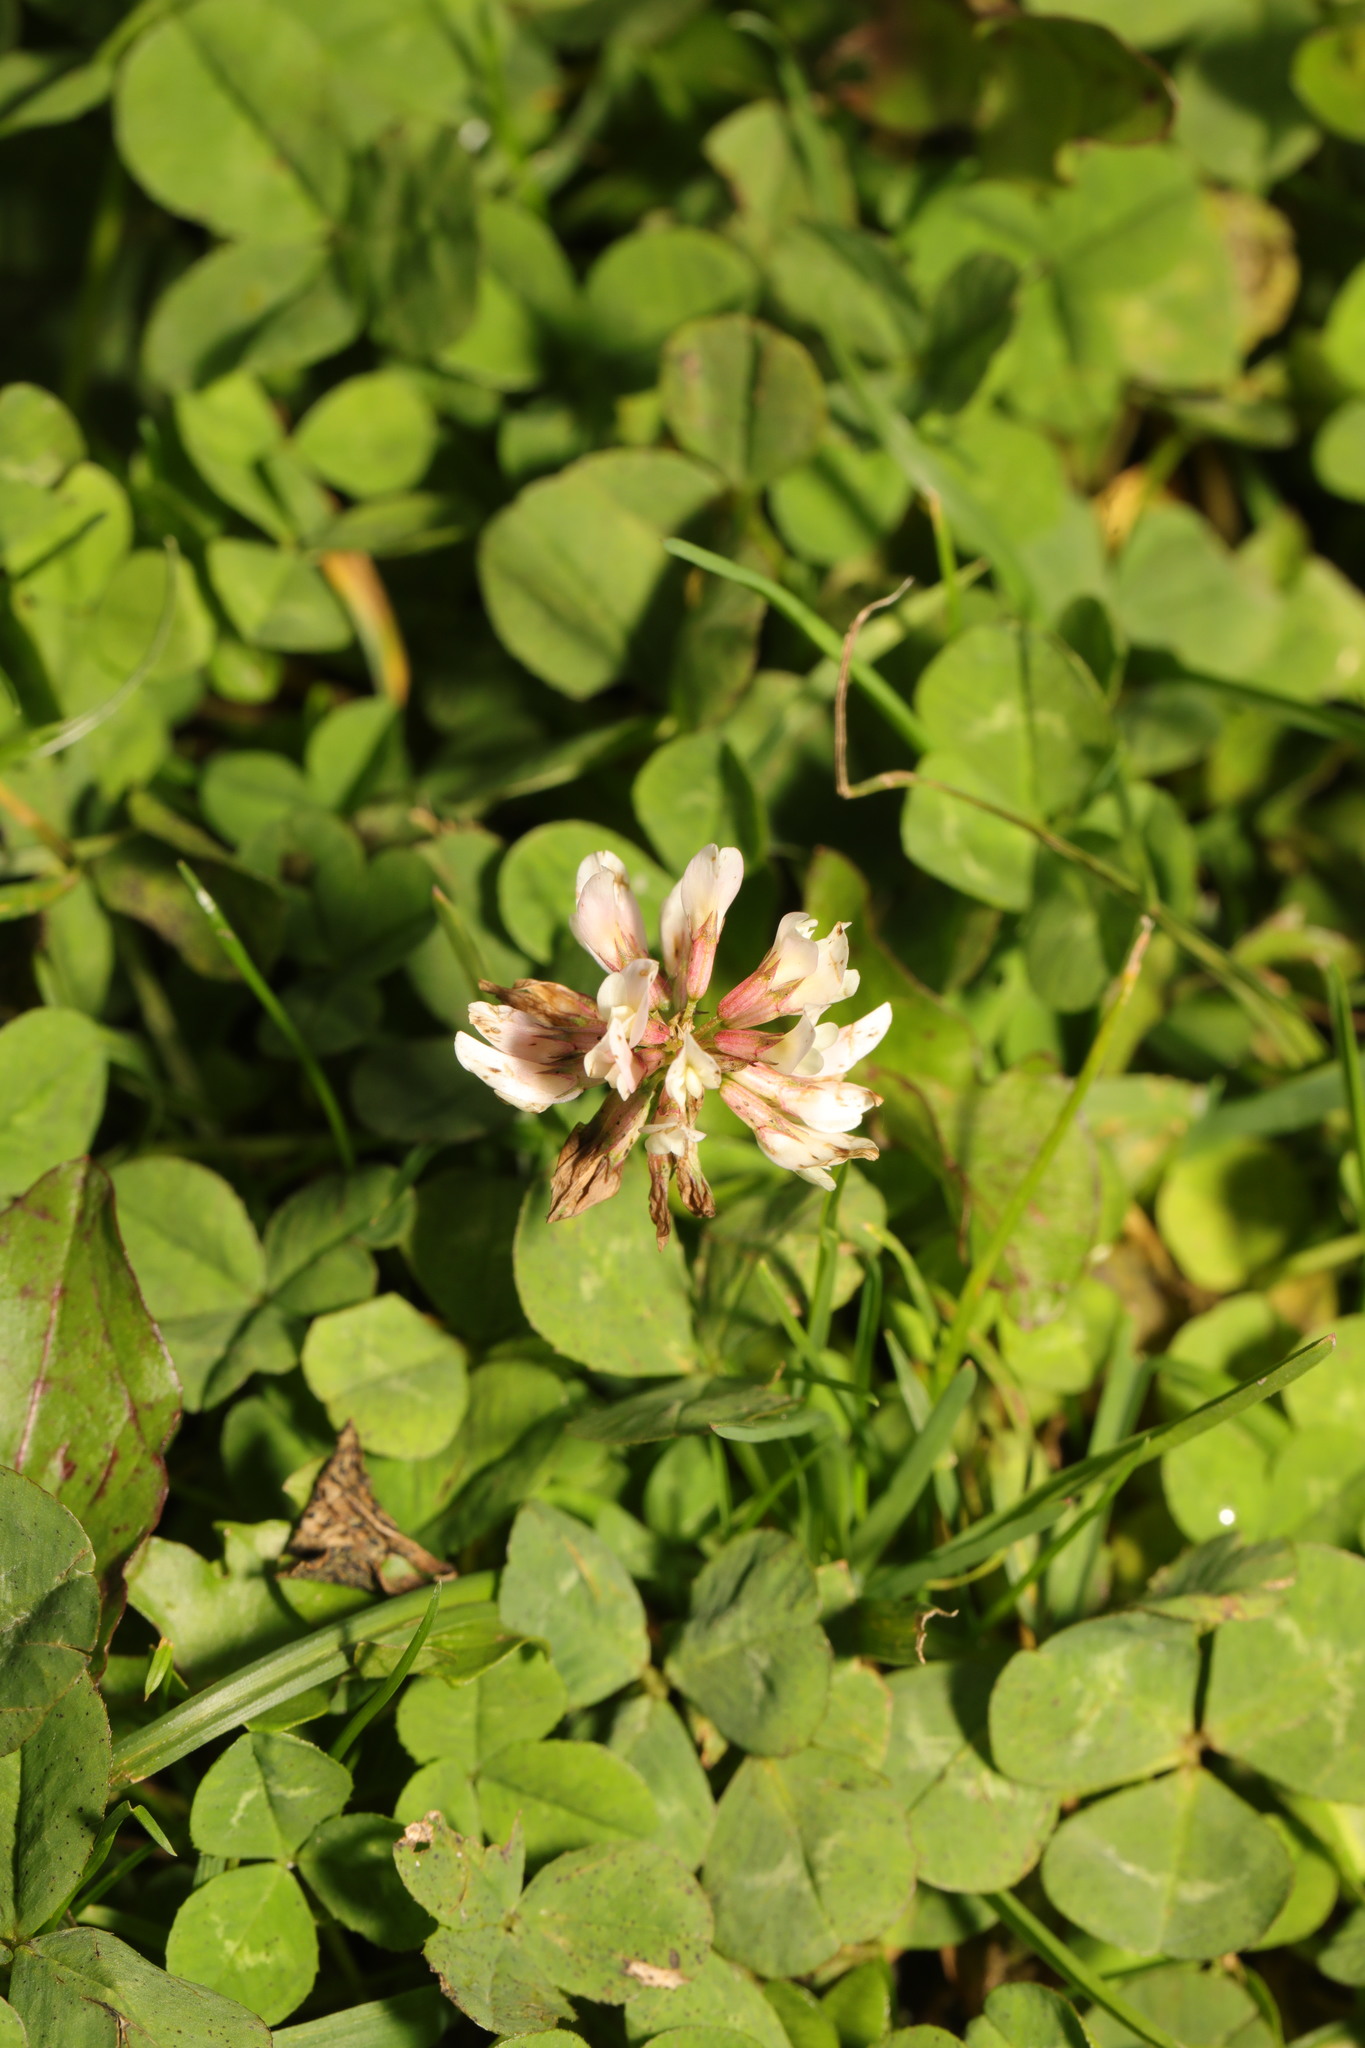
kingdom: Plantae
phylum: Tracheophyta
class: Magnoliopsida
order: Fabales
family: Fabaceae
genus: Trifolium
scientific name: Trifolium repens
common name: White clover
